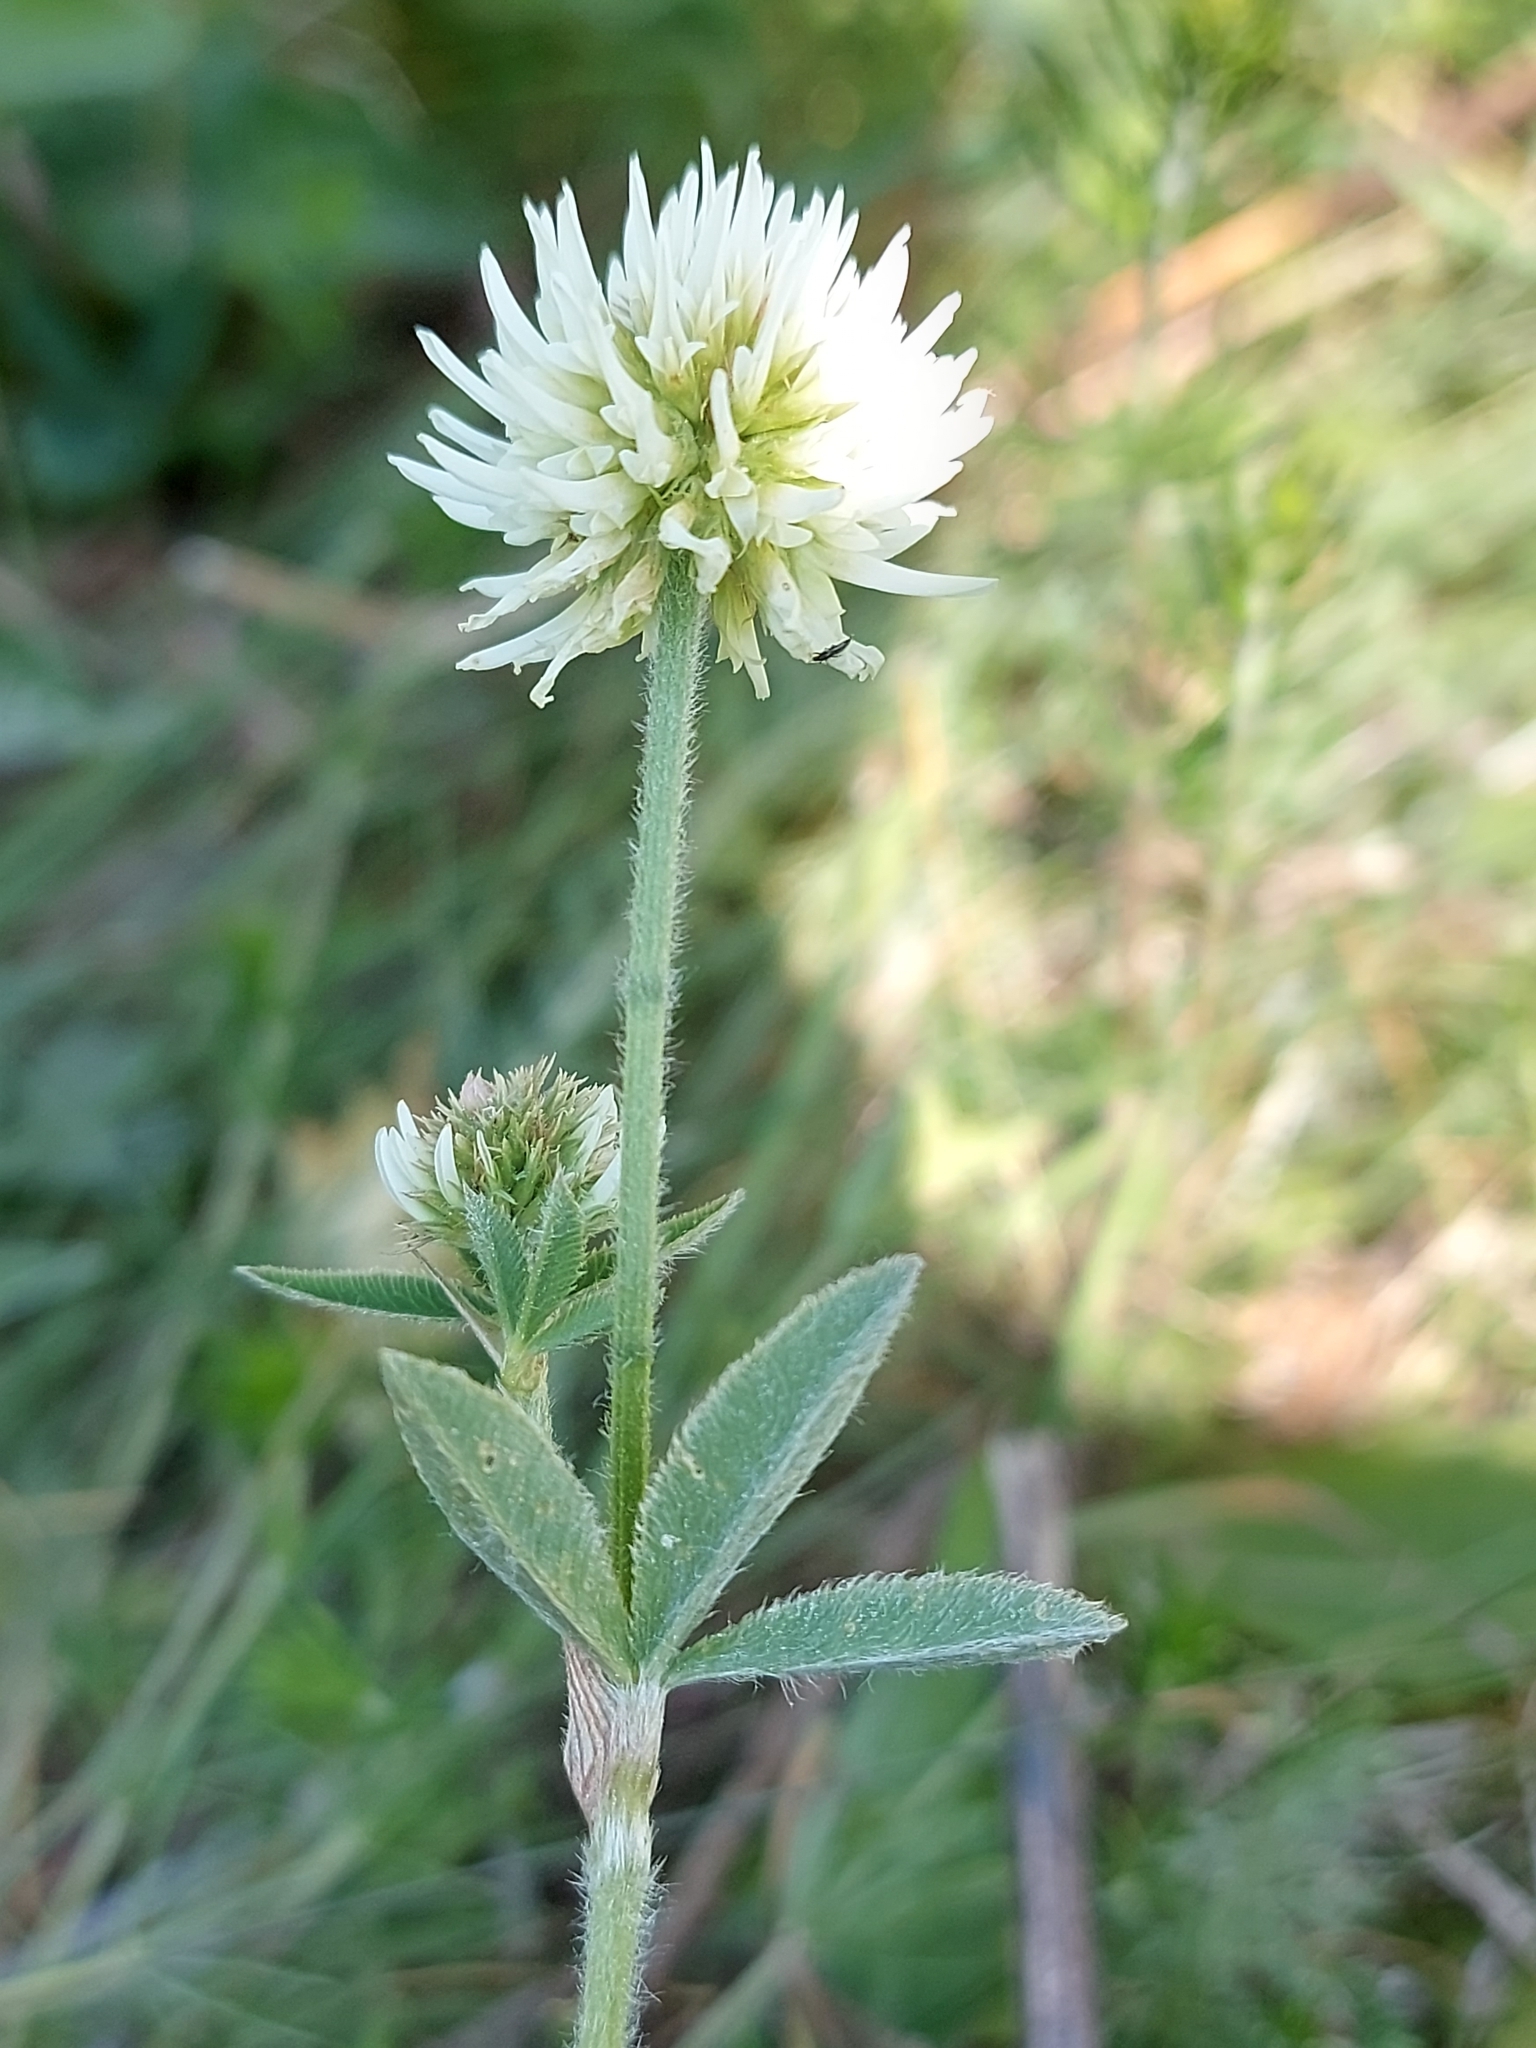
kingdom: Plantae
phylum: Tracheophyta
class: Magnoliopsida
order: Fabales
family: Fabaceae
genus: Trifolium
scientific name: Trifolium montanum
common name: Mountain clover
